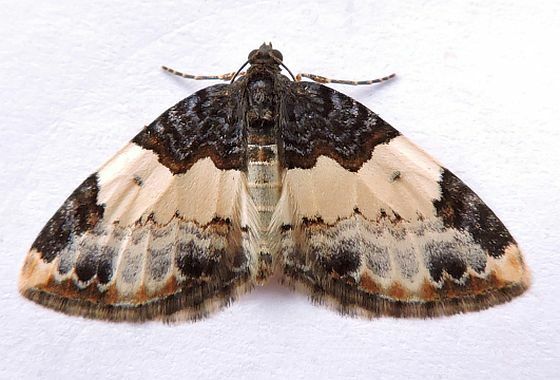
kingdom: Animalia
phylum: Arthropoda
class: Insecta
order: Lepidoptera
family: Geometridae
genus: Mesoleuca
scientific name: Mesoleuca ruficillata
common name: White-ribboned carpet moth
